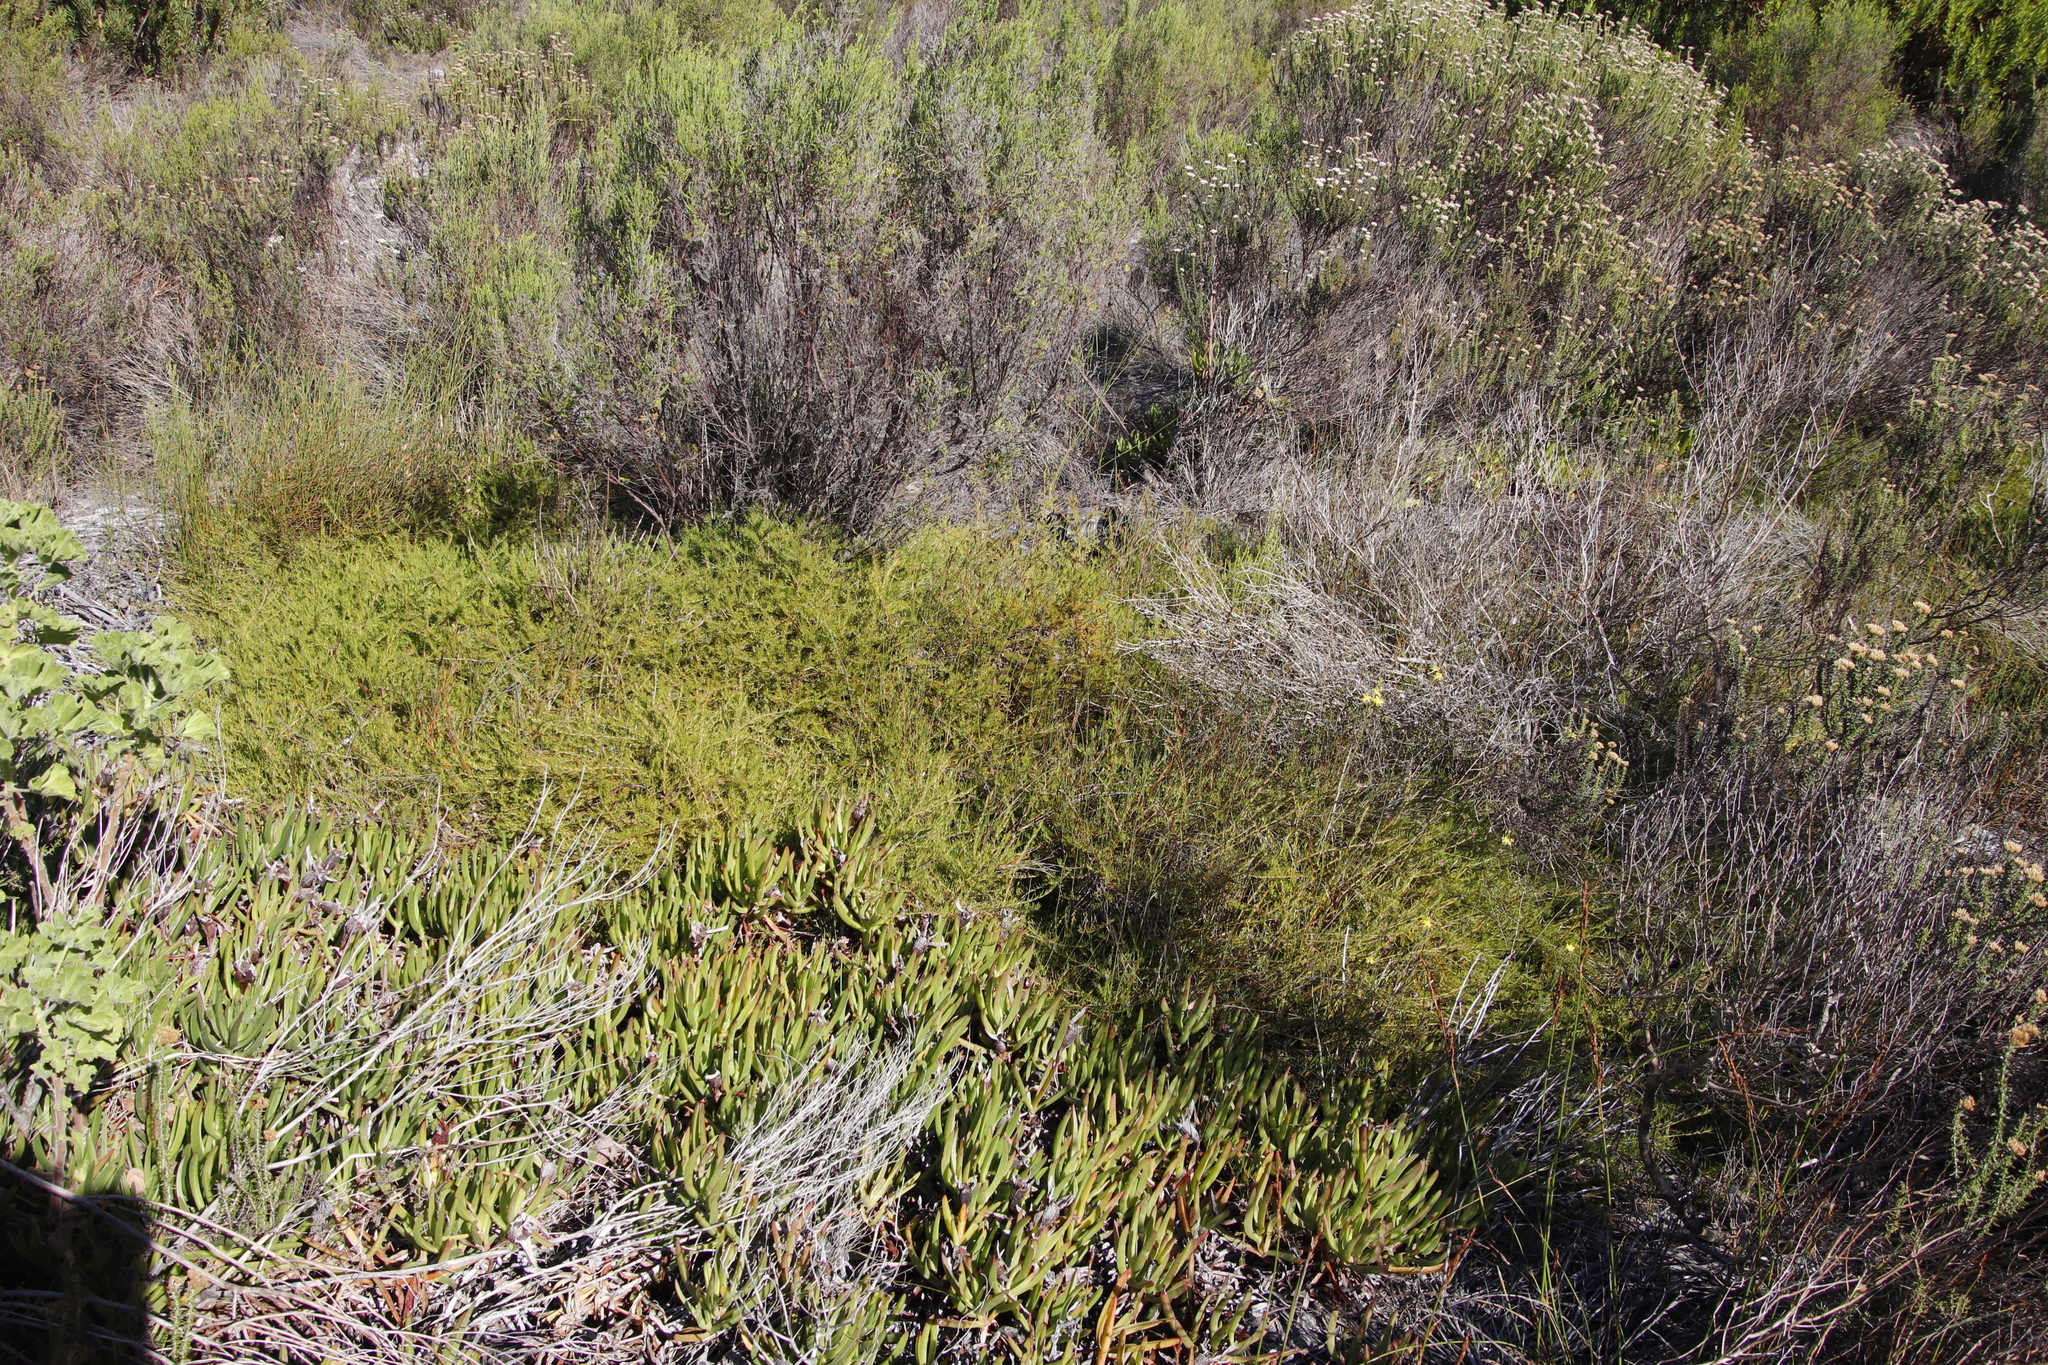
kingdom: Plantae
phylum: Tracheophyta
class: Magnoliopsida
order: Proteales
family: Proteaceae
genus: Diastella
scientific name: Diastella proteoides
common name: Flats silkypuff
